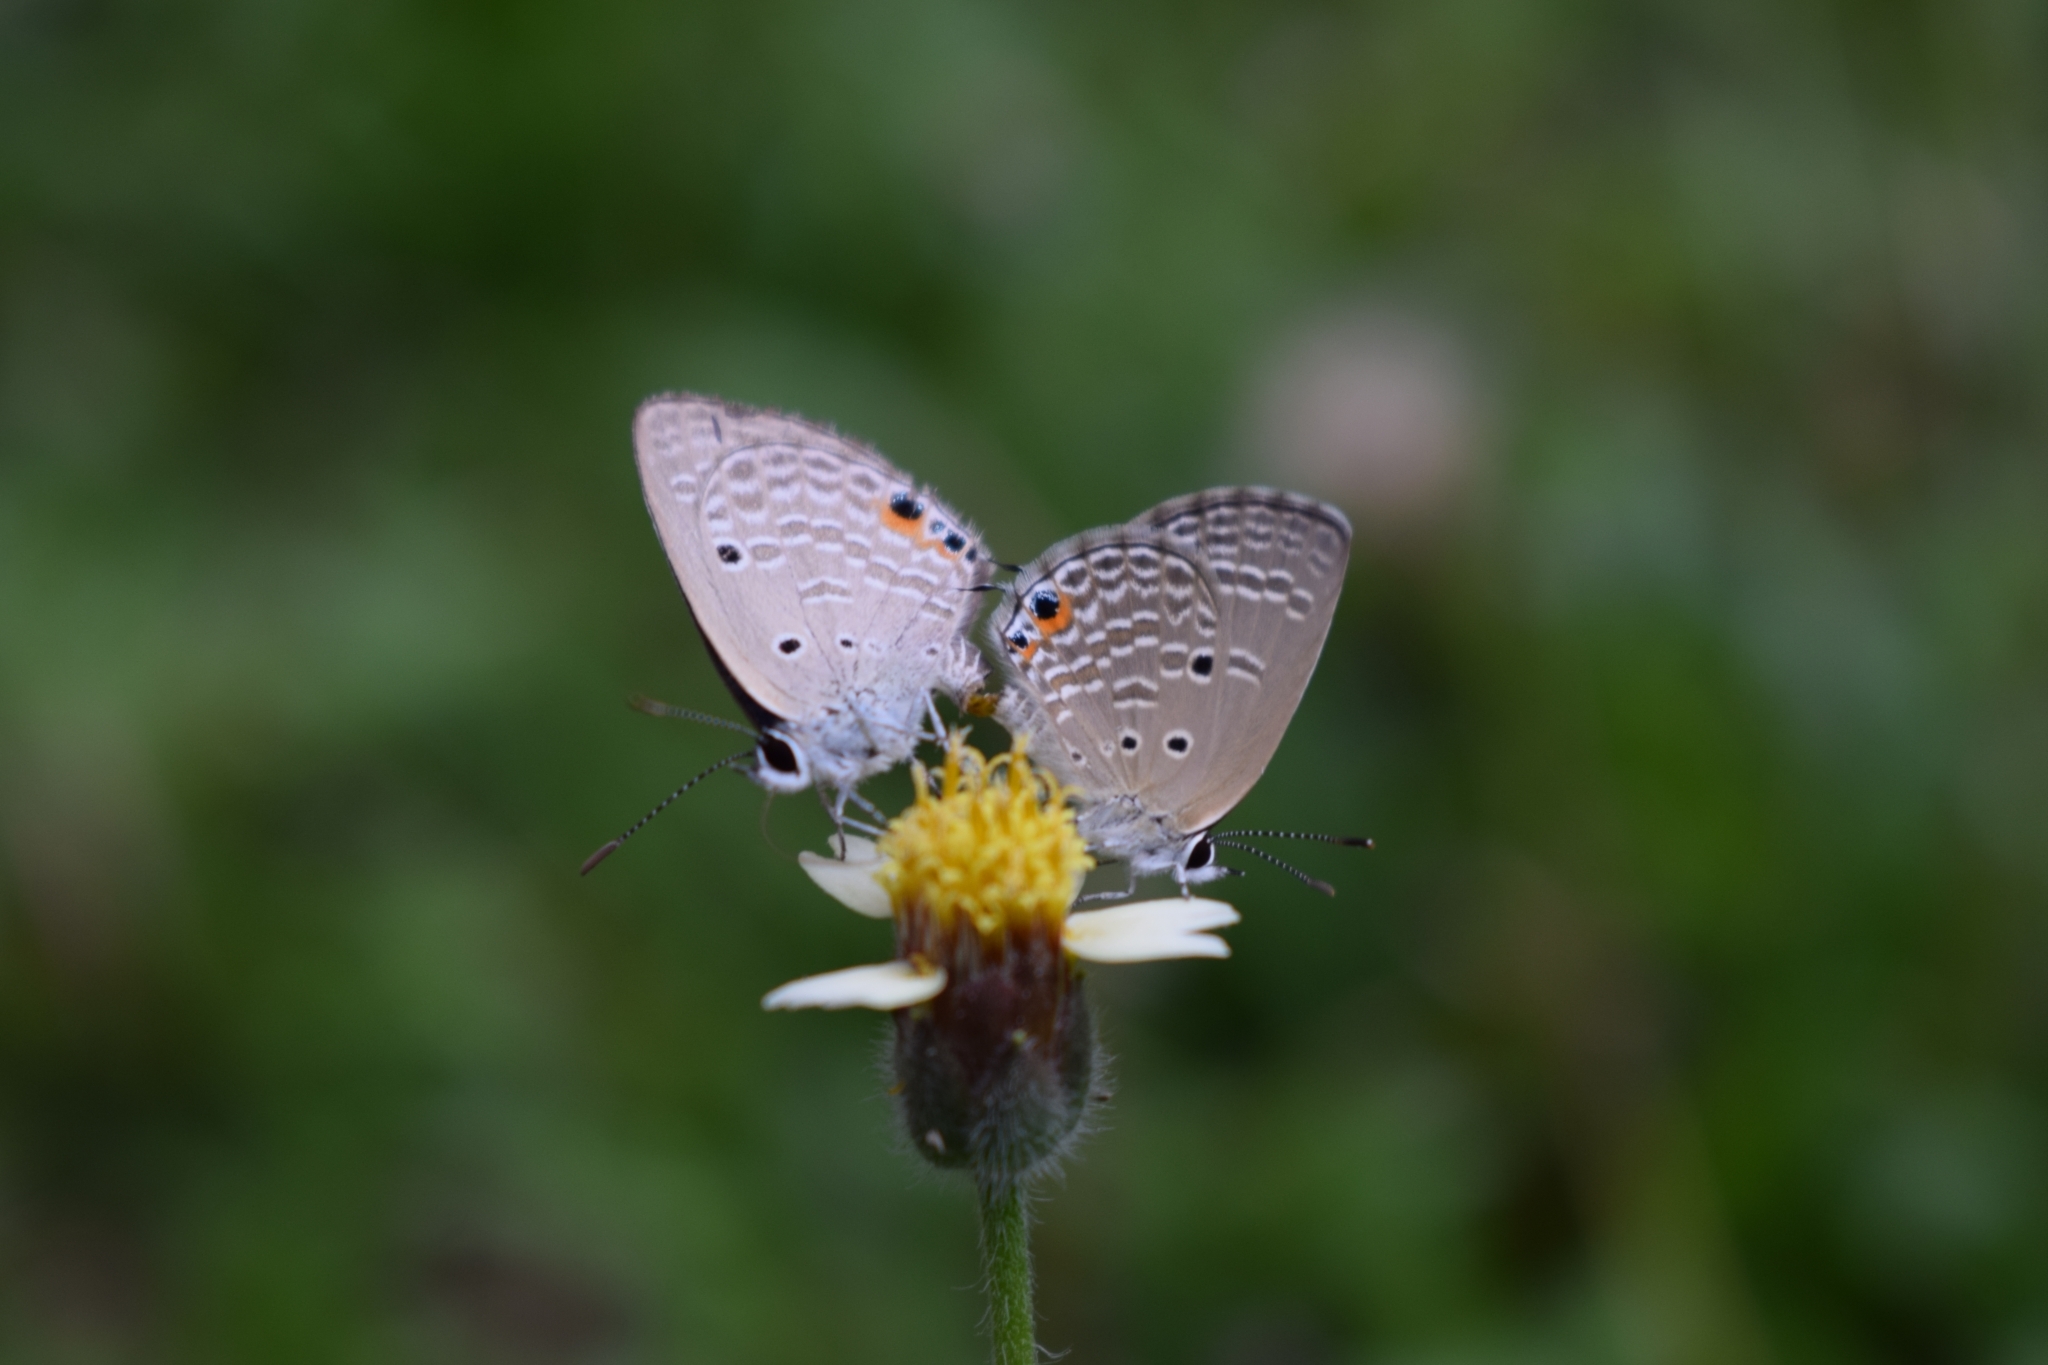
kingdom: Animalia
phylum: Arthropoda
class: Insecta
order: Lepidoptera
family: Lycaenidae
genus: Luthrodes
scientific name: Luthrodes pandava
